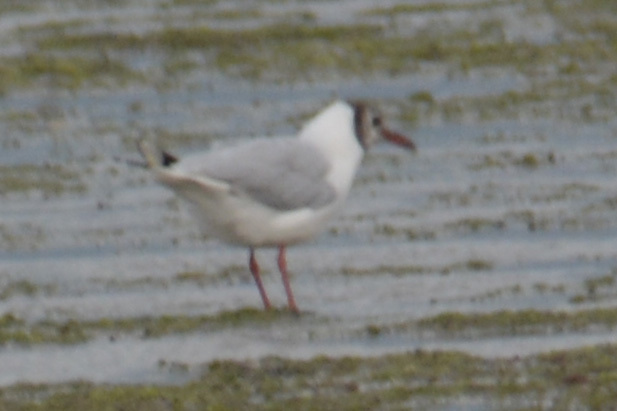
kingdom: Animalia
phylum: Chordata
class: Aves
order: Charadriiformes
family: Laridae
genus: Chroicocephalus
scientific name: Chroicocephalus maculipennis
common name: Brown-hooded gull
